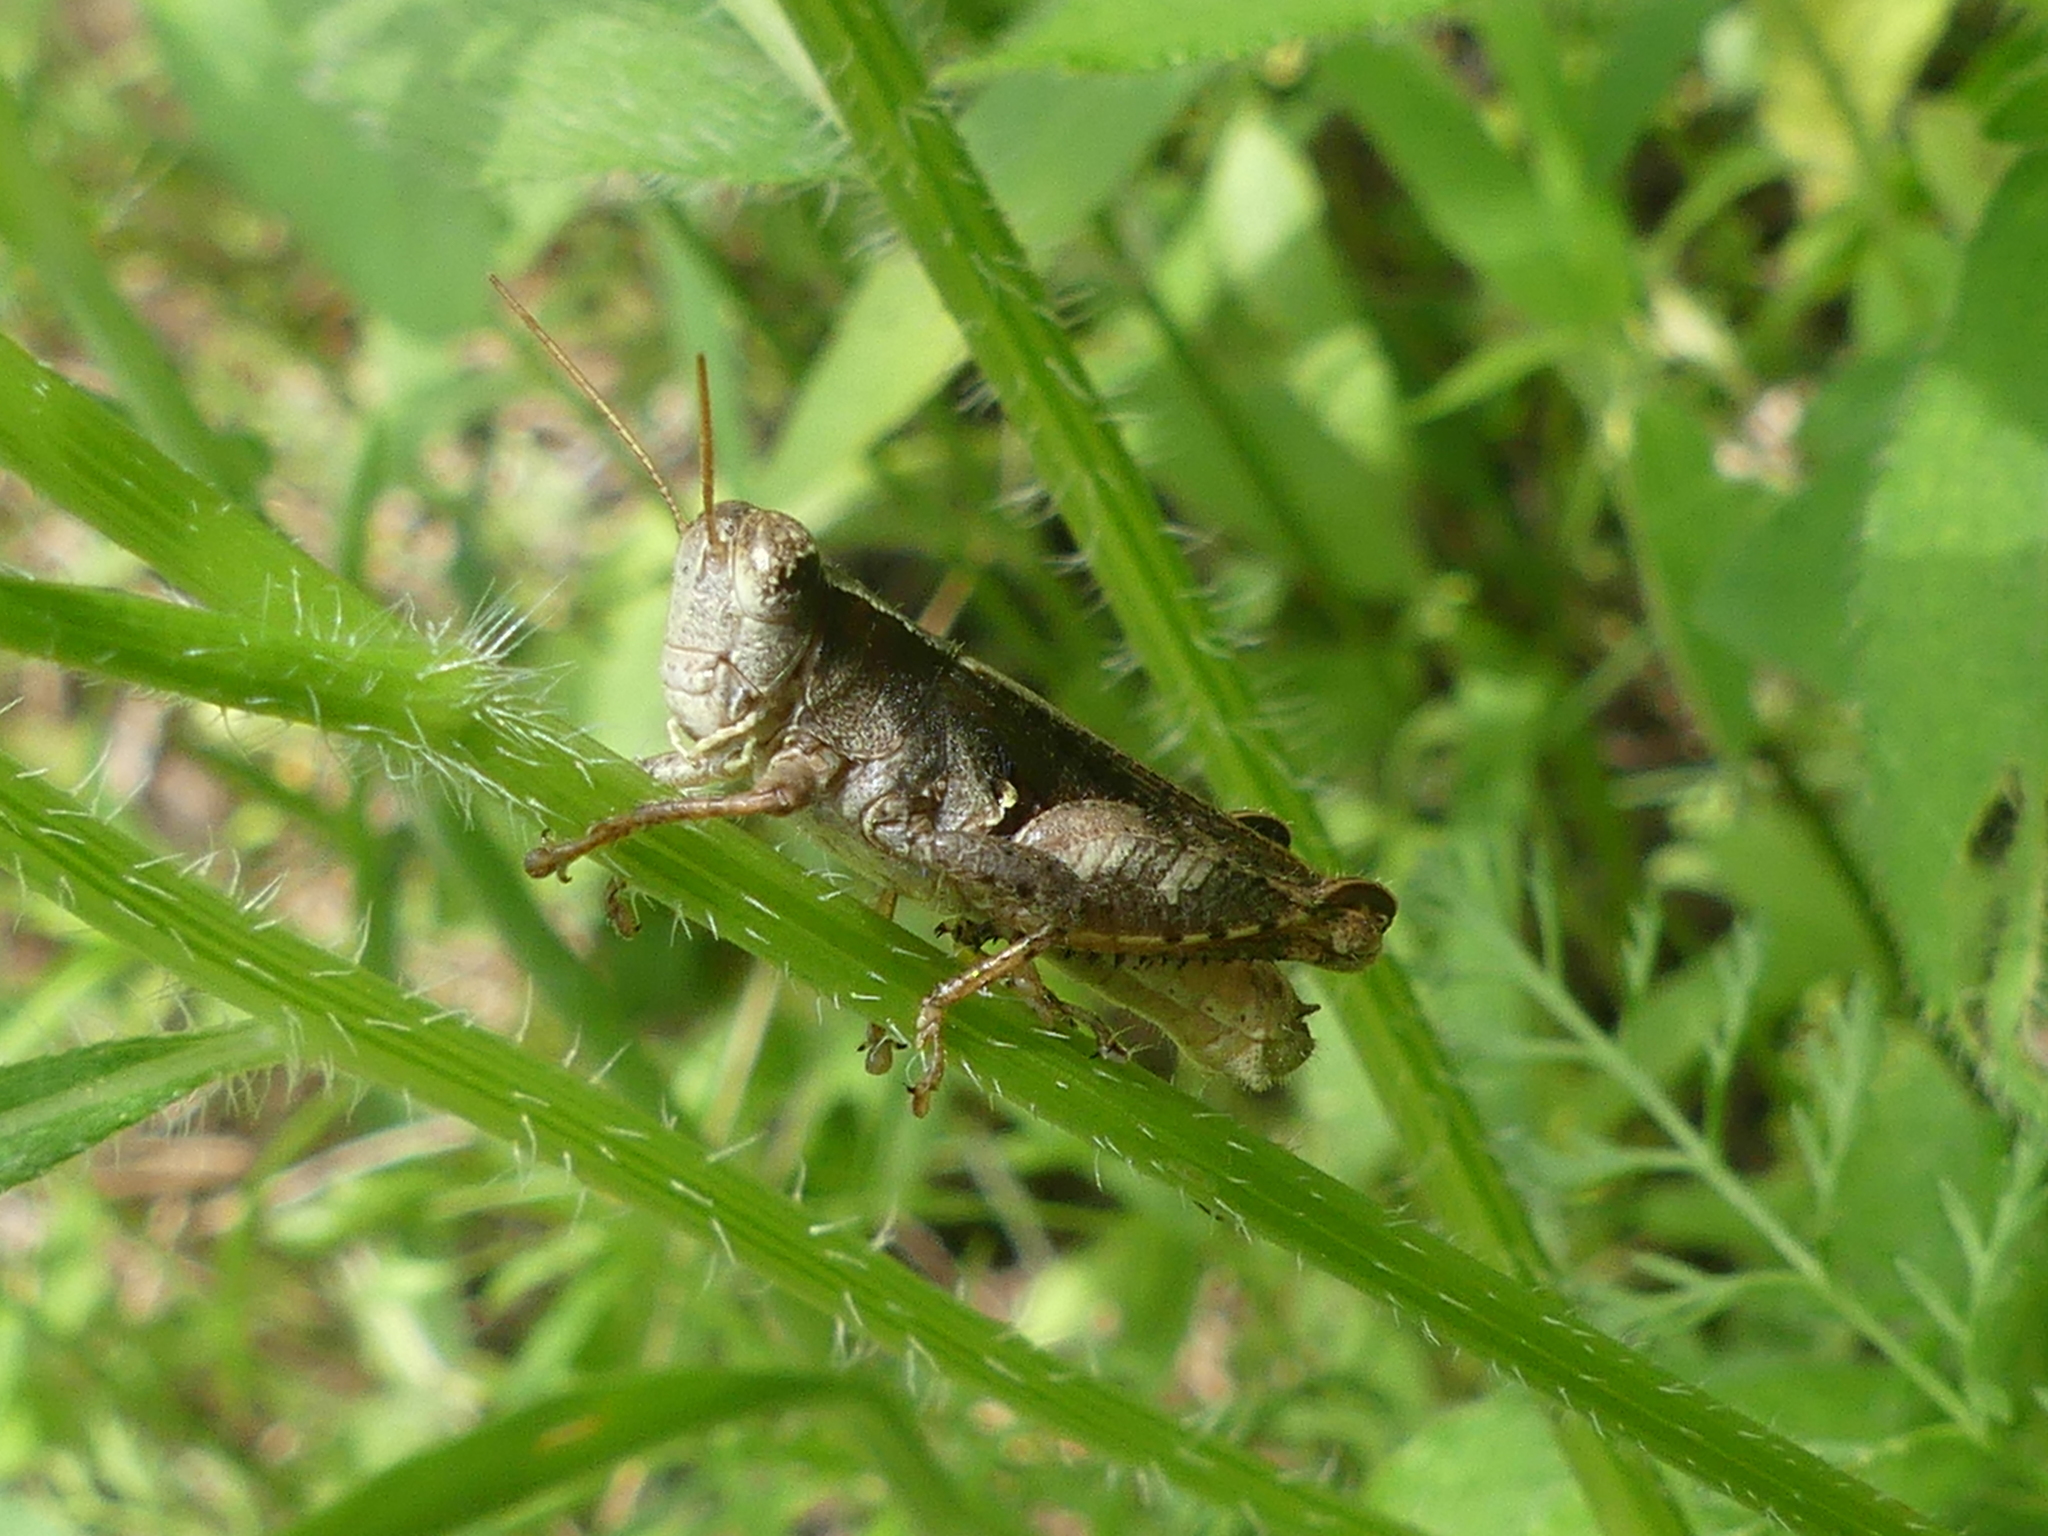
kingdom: Animalia
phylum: Arthropoda
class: Insecta
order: Orthoptera
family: Acrididae
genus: Aidemona
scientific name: Aidemona azteca
